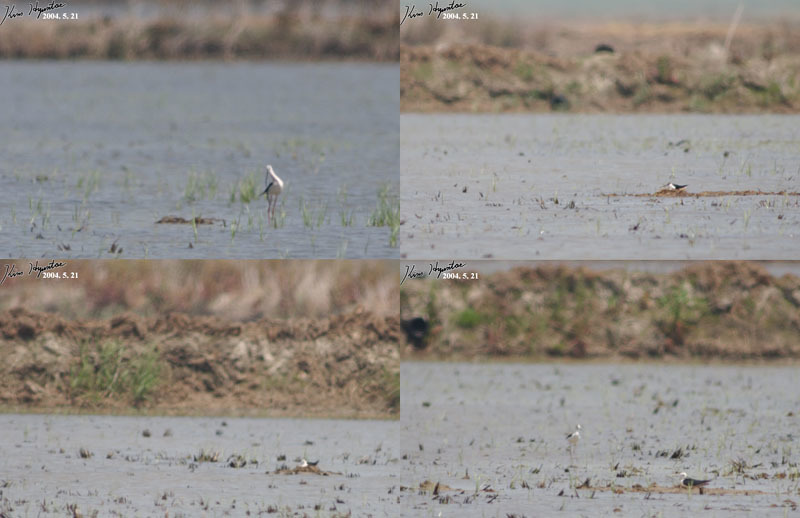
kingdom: Animalia
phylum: Chordata
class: Aves
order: Charadriiformes
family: Recurvirostridae
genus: Himantopus
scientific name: Himantopus himantopus
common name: Black-winged stilt
